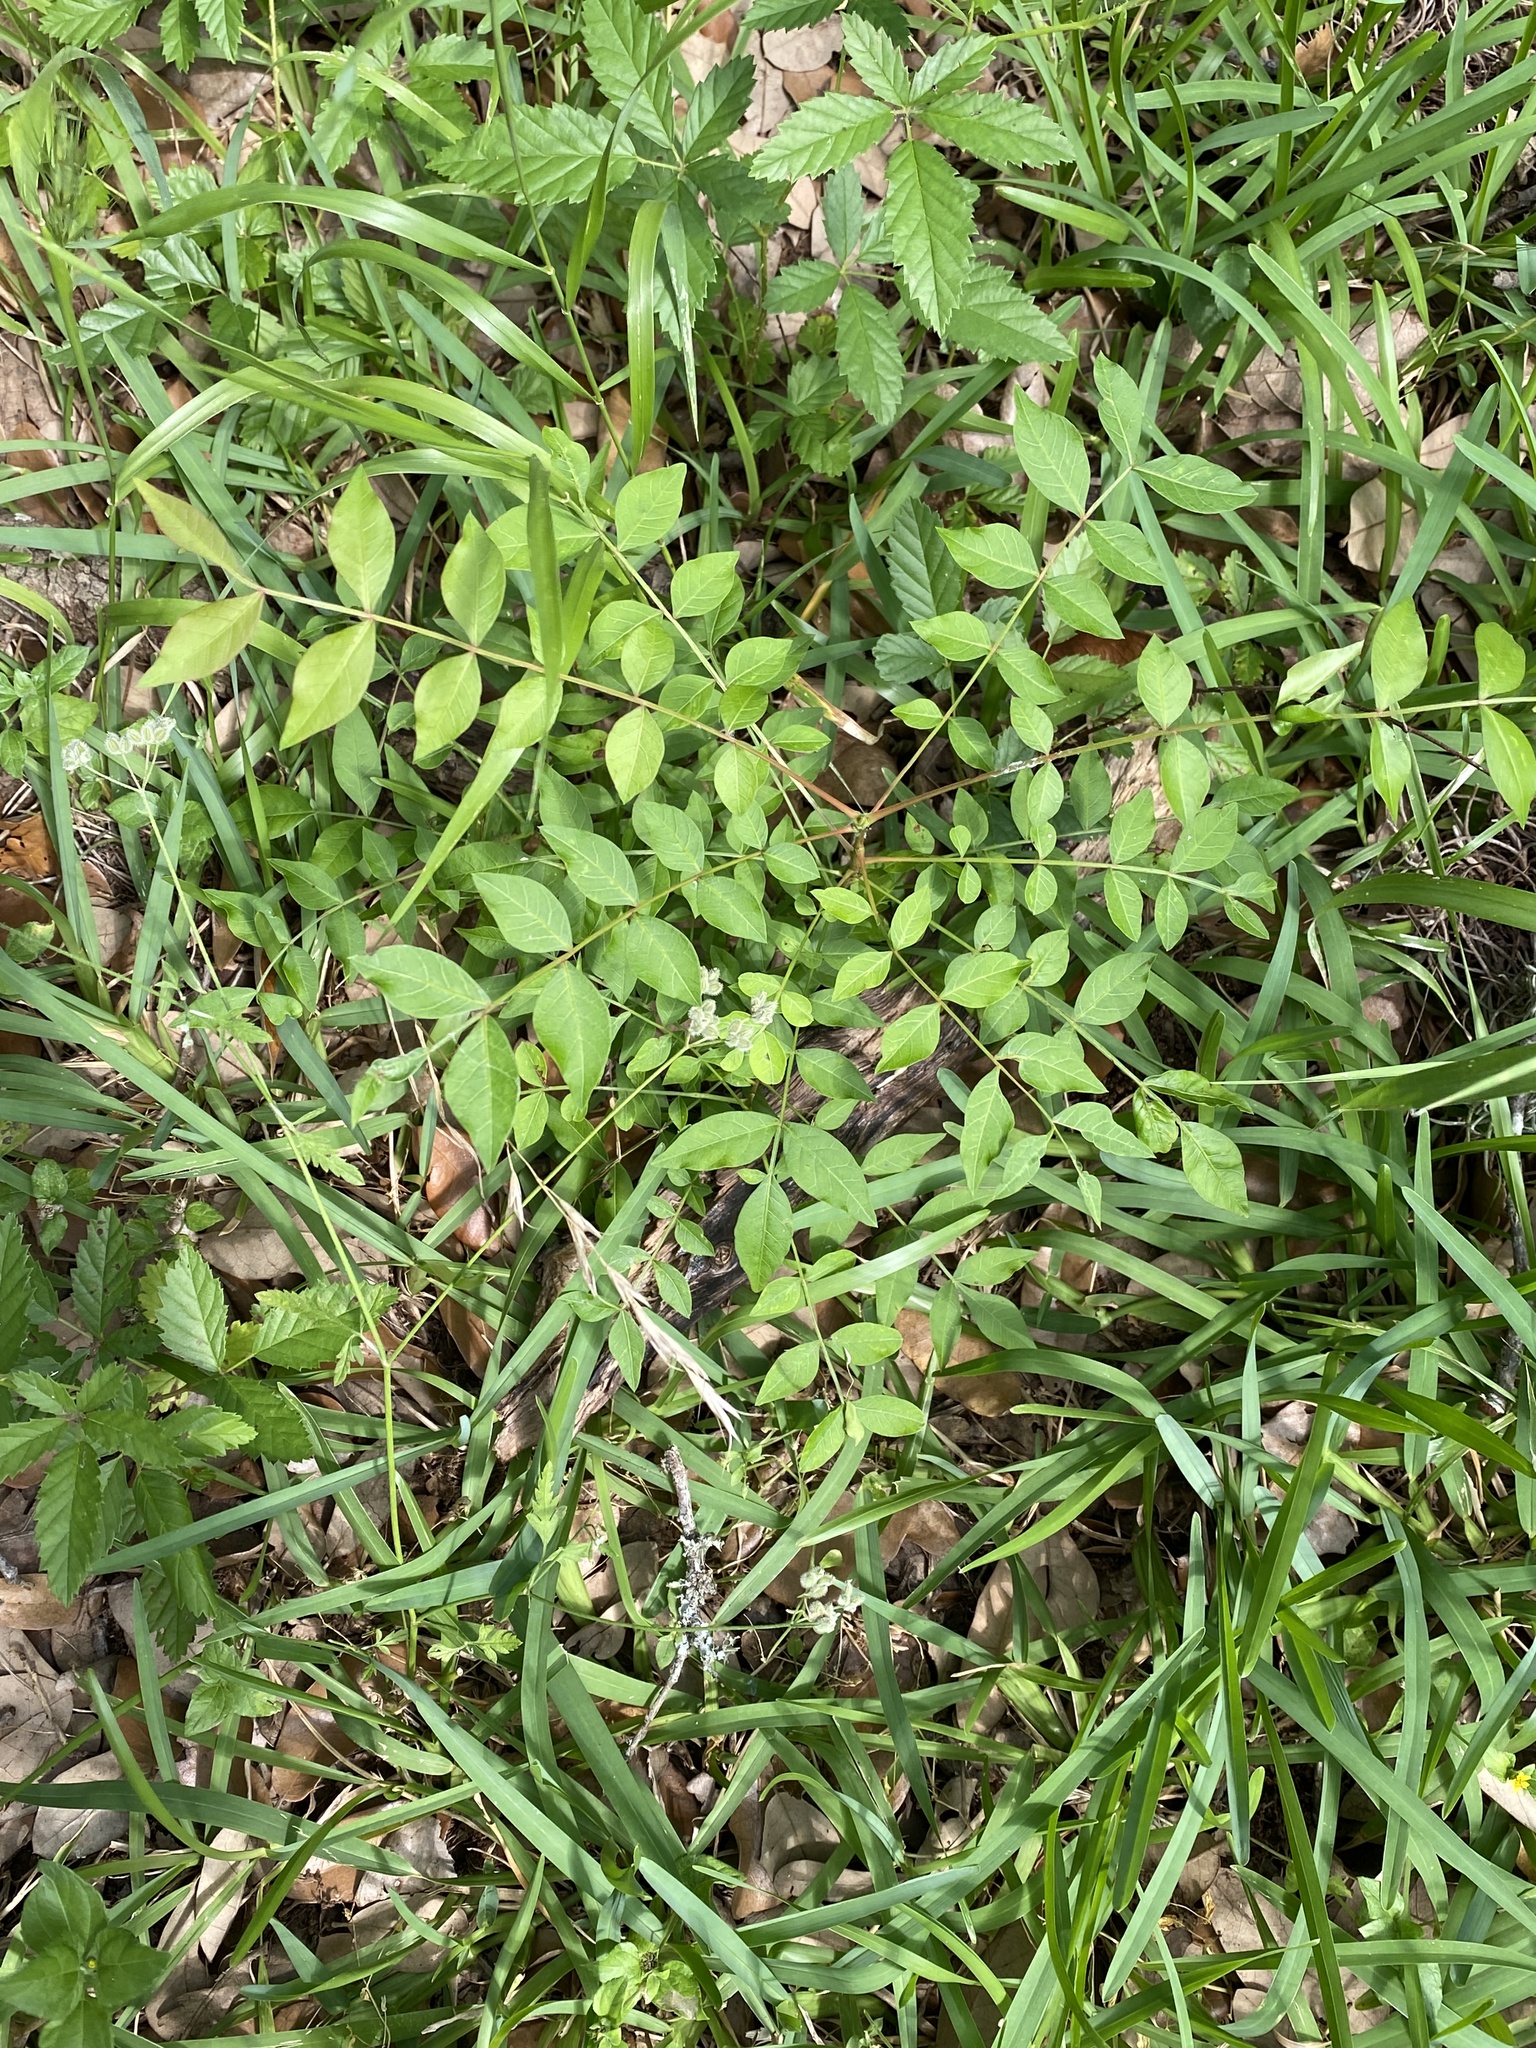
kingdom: Plantae
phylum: Tracheophyta
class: Magnoliopsida
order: Sapindales
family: Anacardiaceae
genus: Pistacia
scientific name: Pistacia chinensis
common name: Chinese pistache
